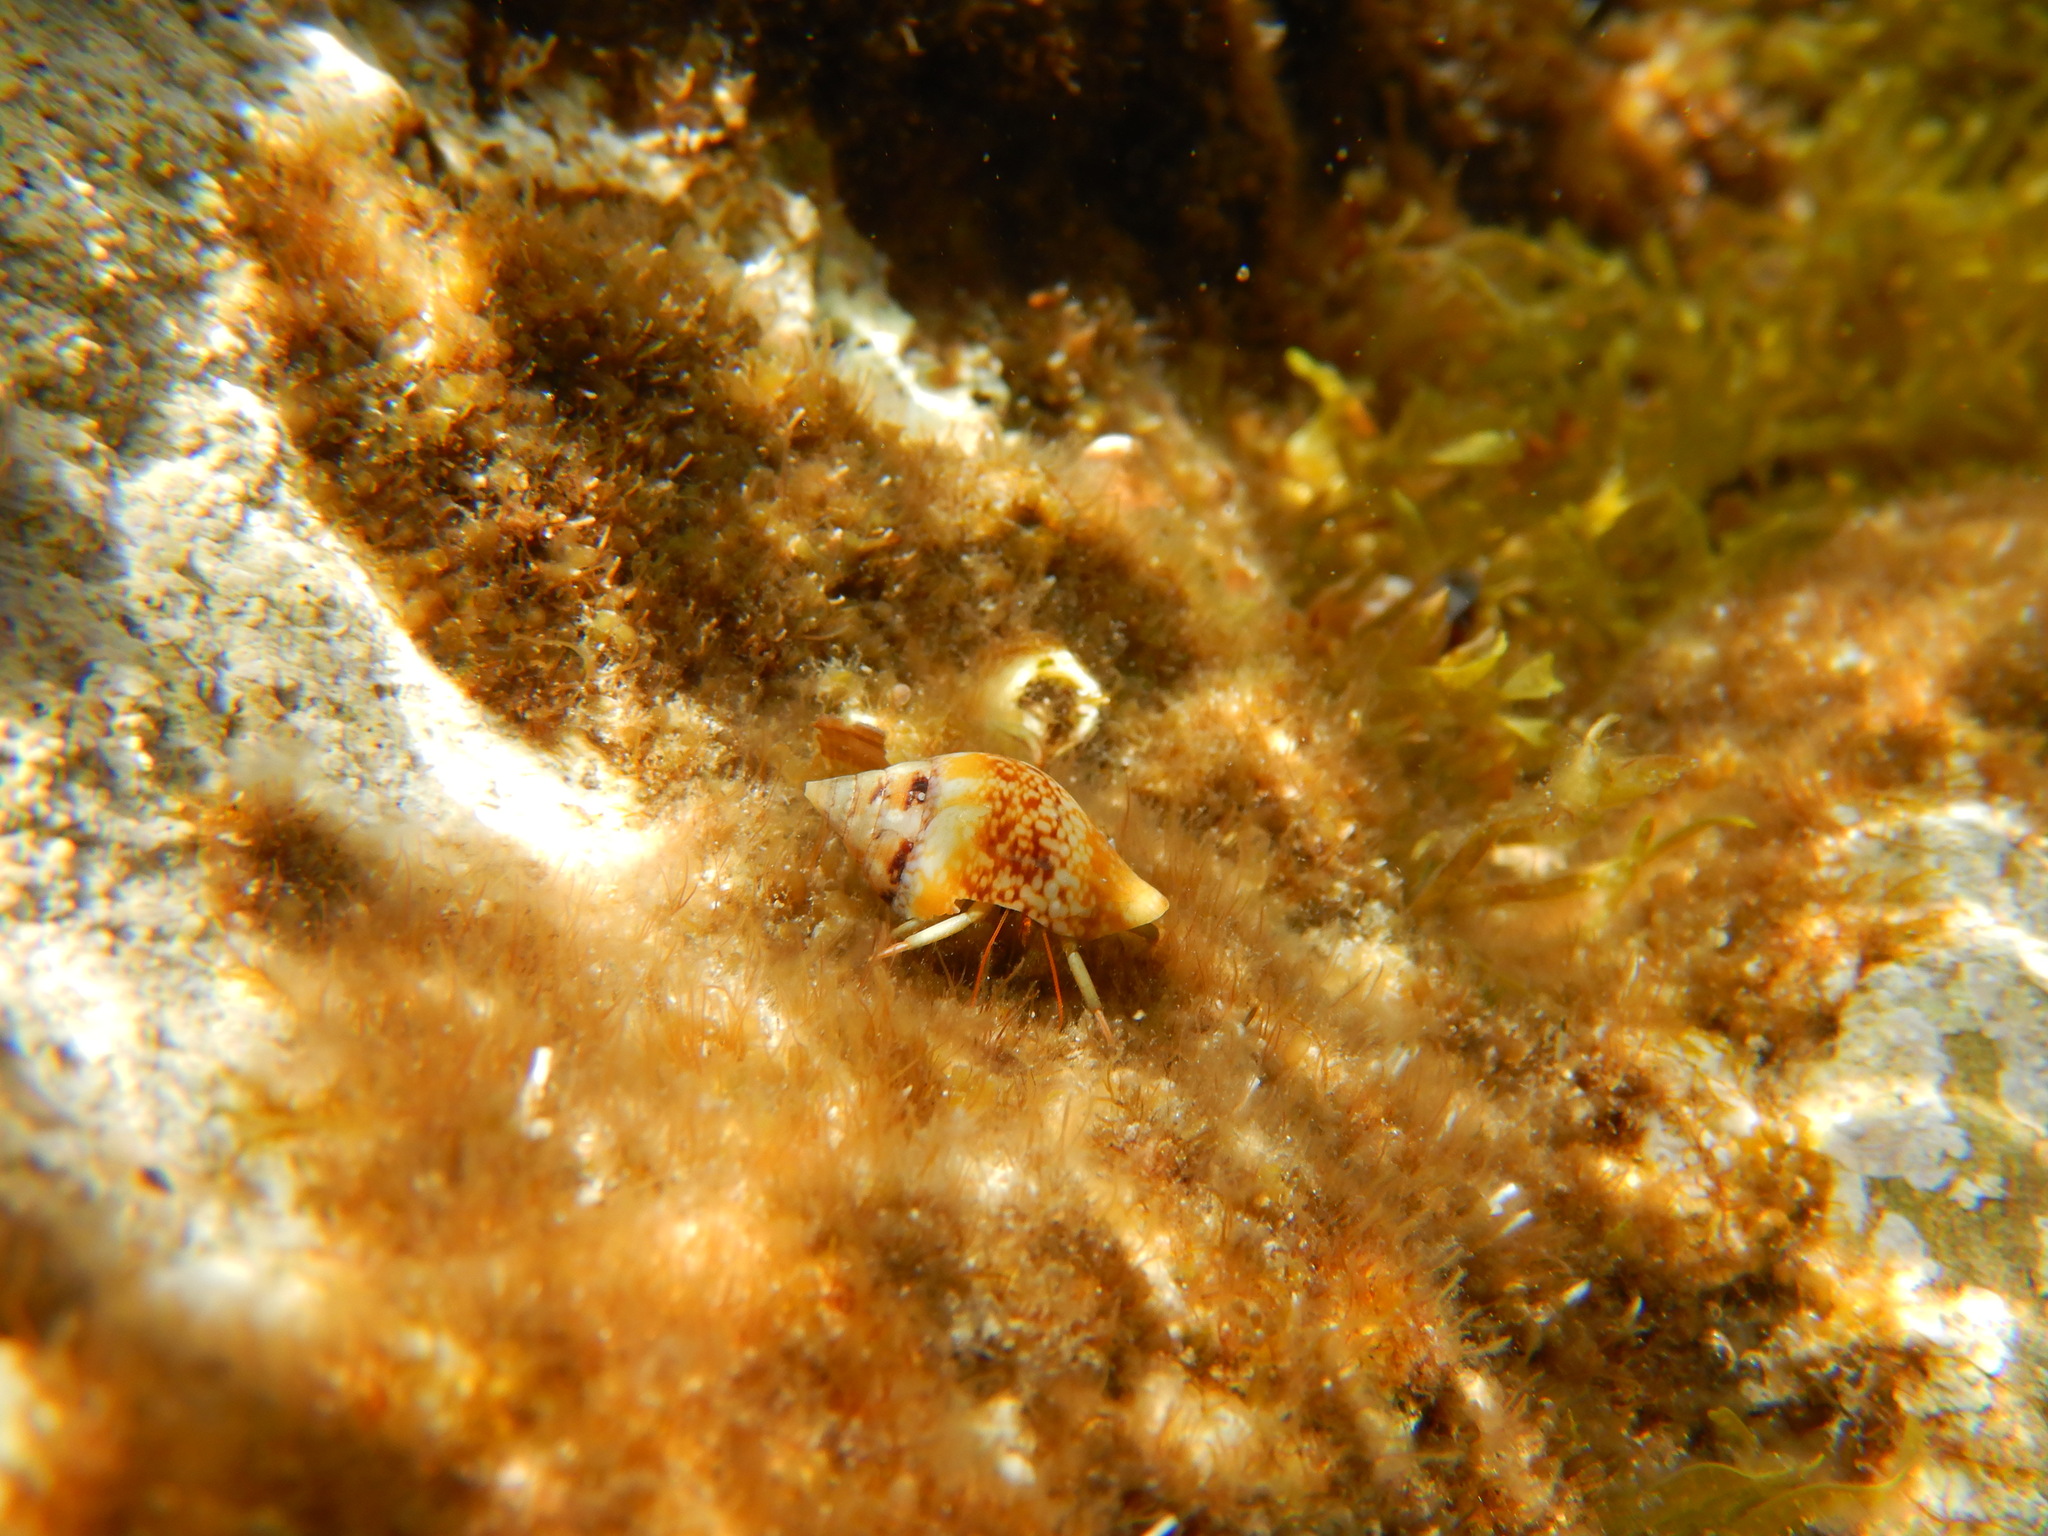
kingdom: Animalia
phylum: Mollusca
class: Gastropoda
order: Neogastropoda
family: Columbellidae
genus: Columbella
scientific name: Columbella rustica
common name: Rustic dove shell
